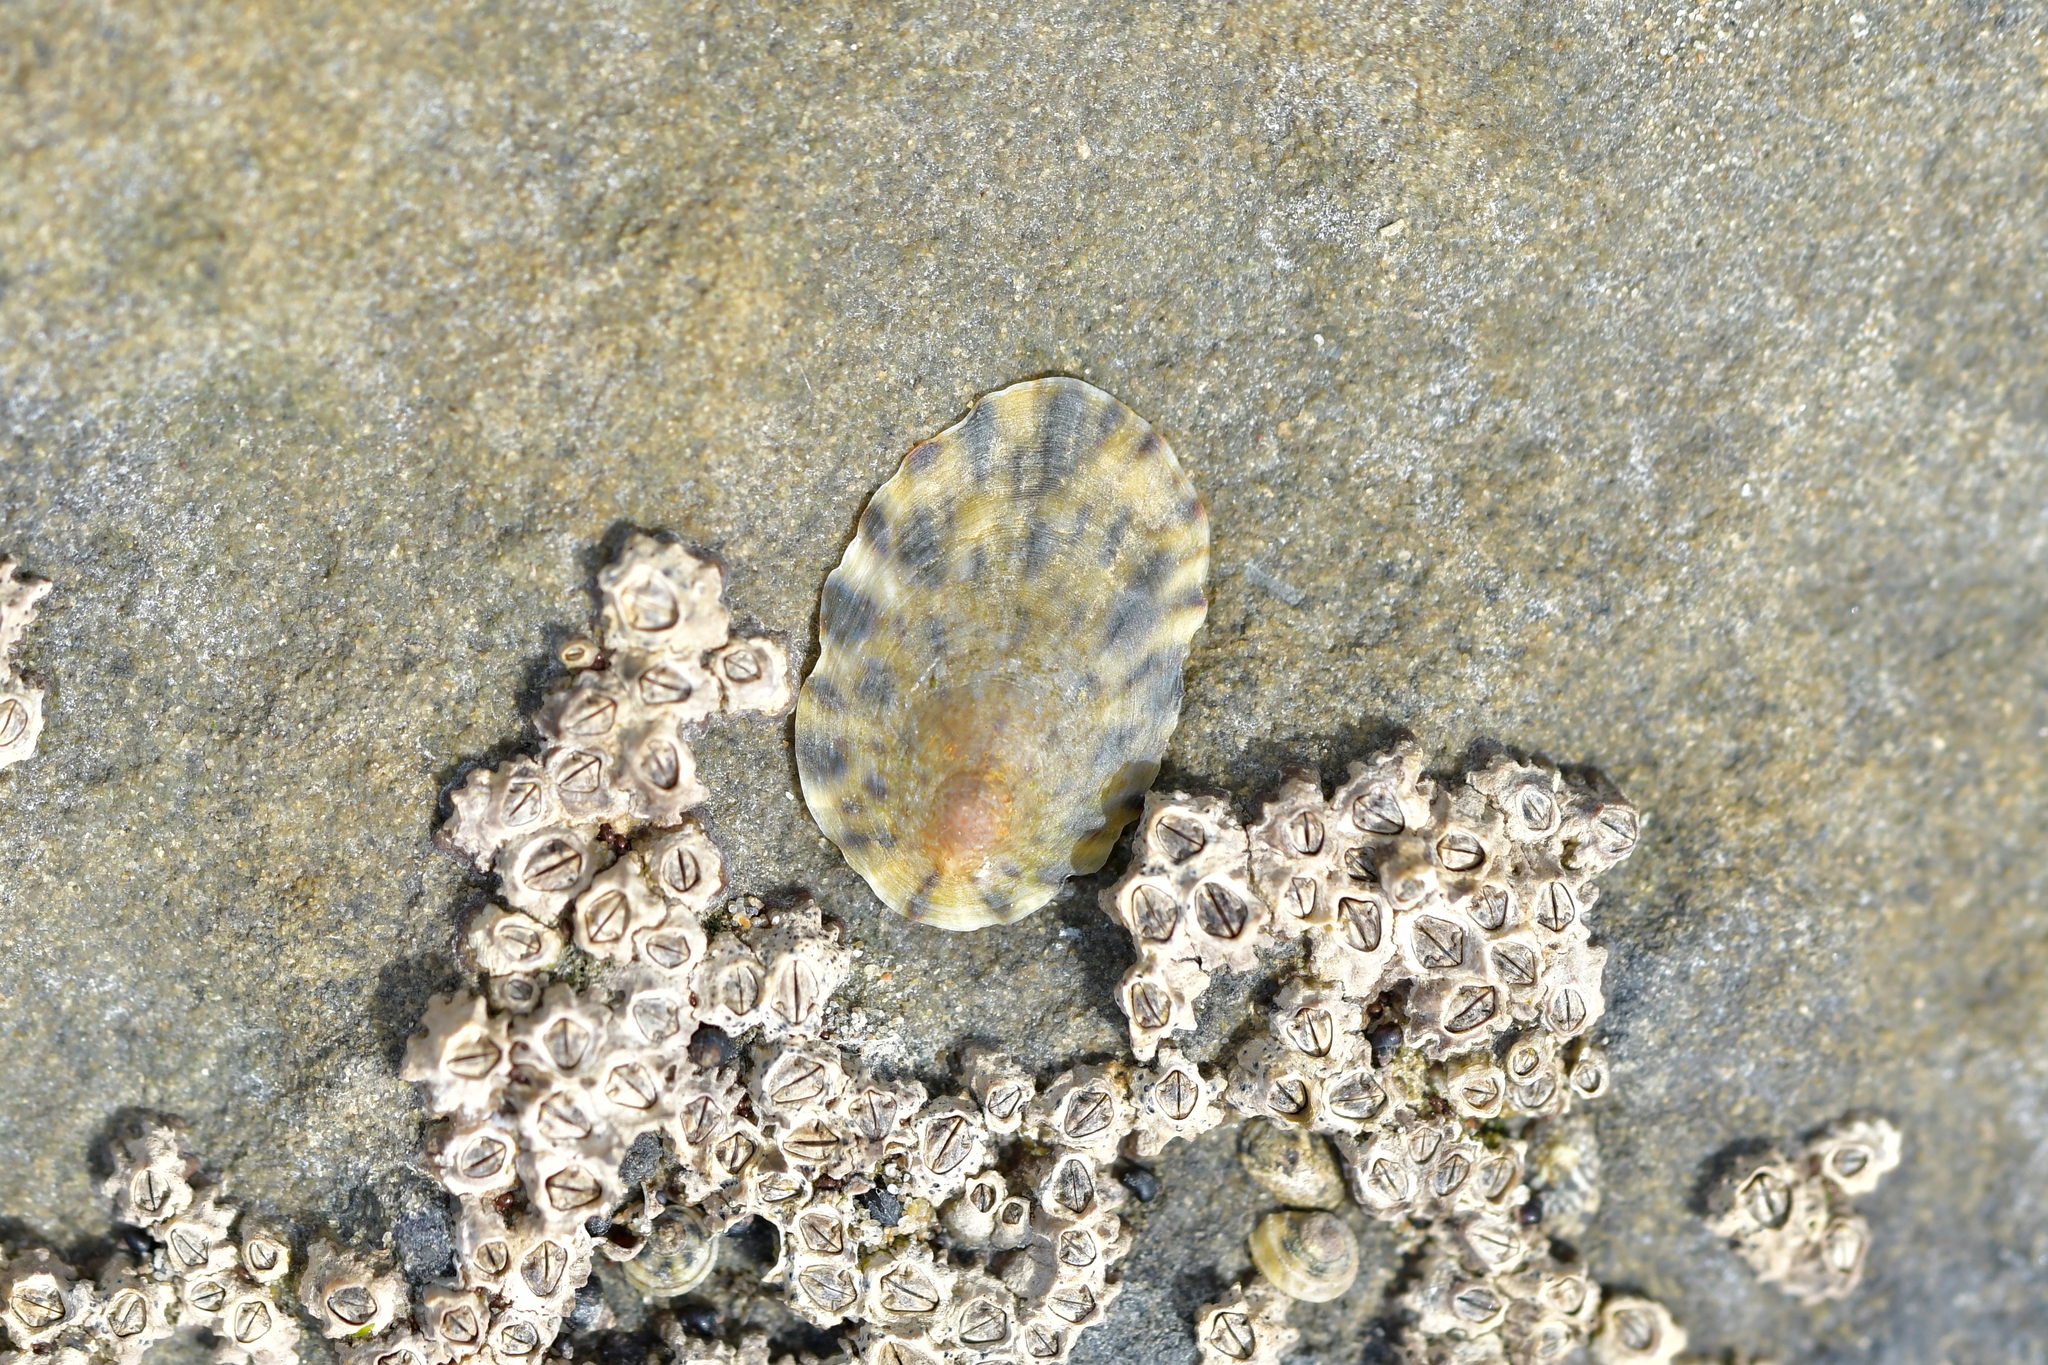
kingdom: Animalia
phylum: Mollusca
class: Gastropoda
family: Nacellidae
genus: Cellana
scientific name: Cellana radians
